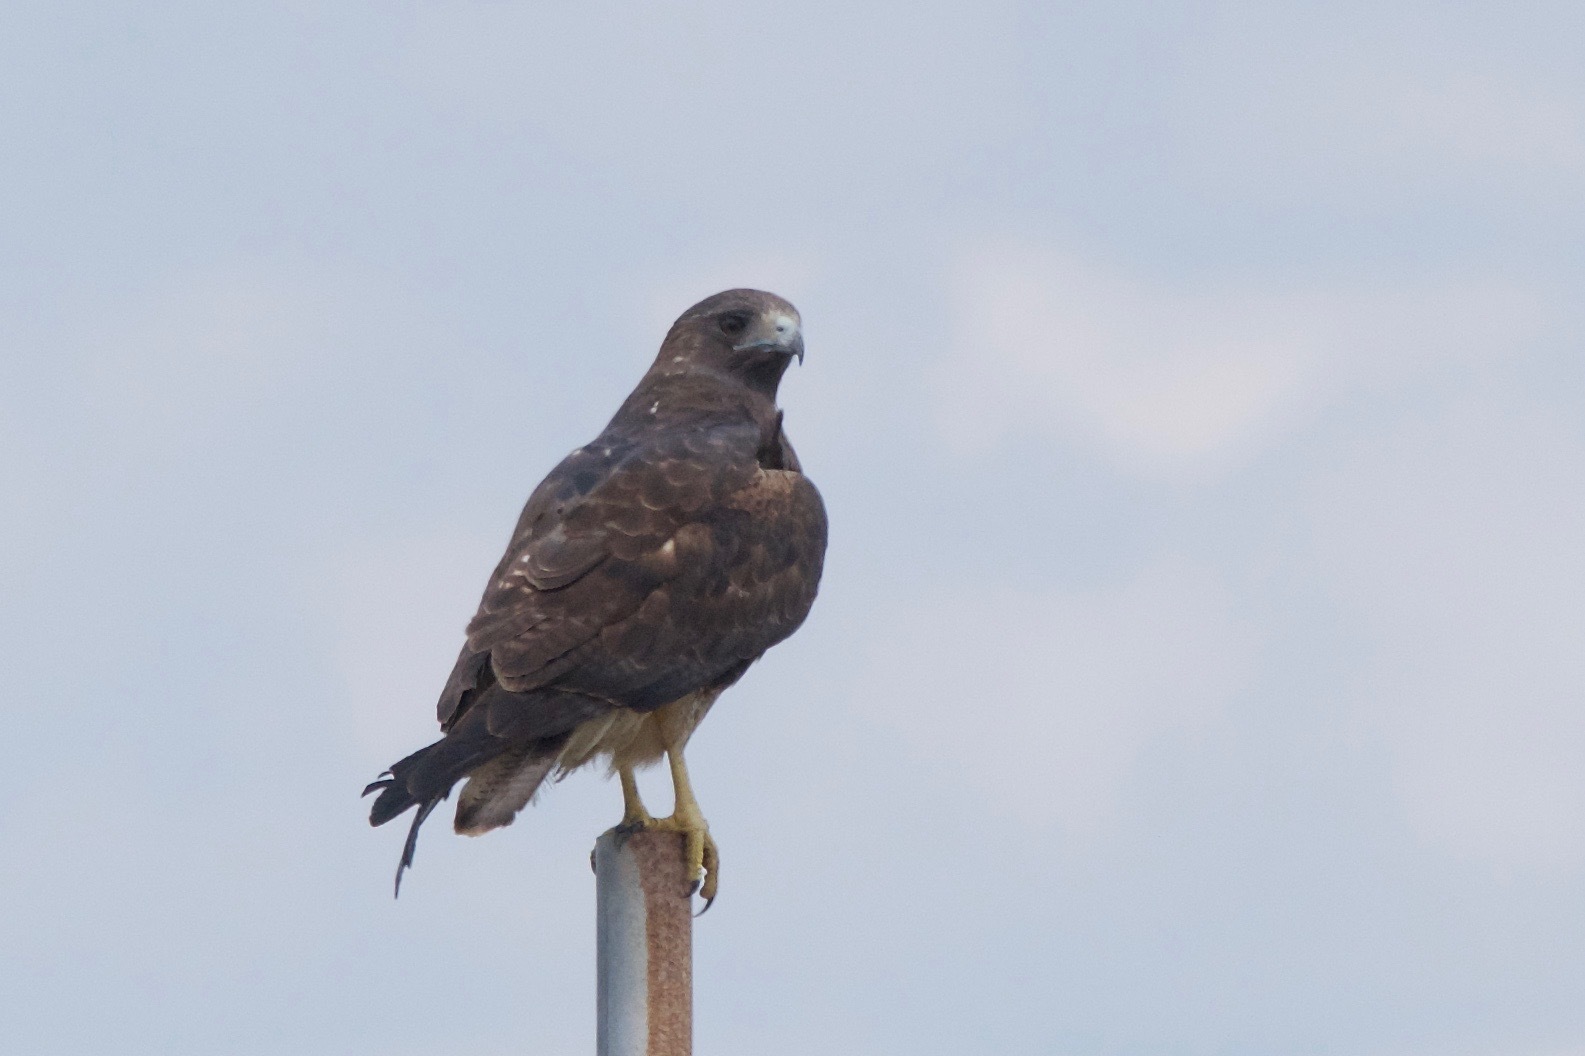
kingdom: Animalia
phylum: Chordata
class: Aves
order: Accipitriformes
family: Accipitridae
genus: Buteo
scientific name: Buteo albicaudatus
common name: White-tailed hawk
